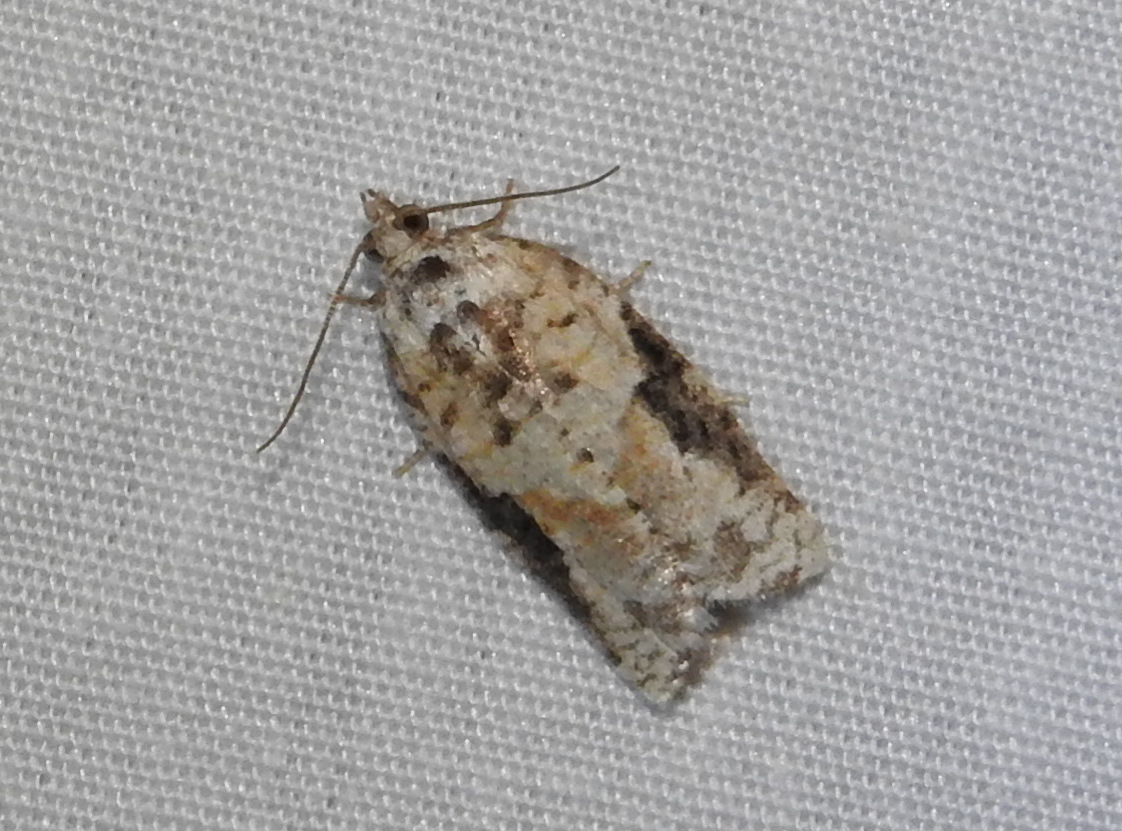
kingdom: Animalia
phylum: Arthropoda
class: Insecta
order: Lepidoptera
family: Tortricidae
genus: Argyrotaenia
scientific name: Argyrotaenia mariana
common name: Gray-banded leafroller moth
